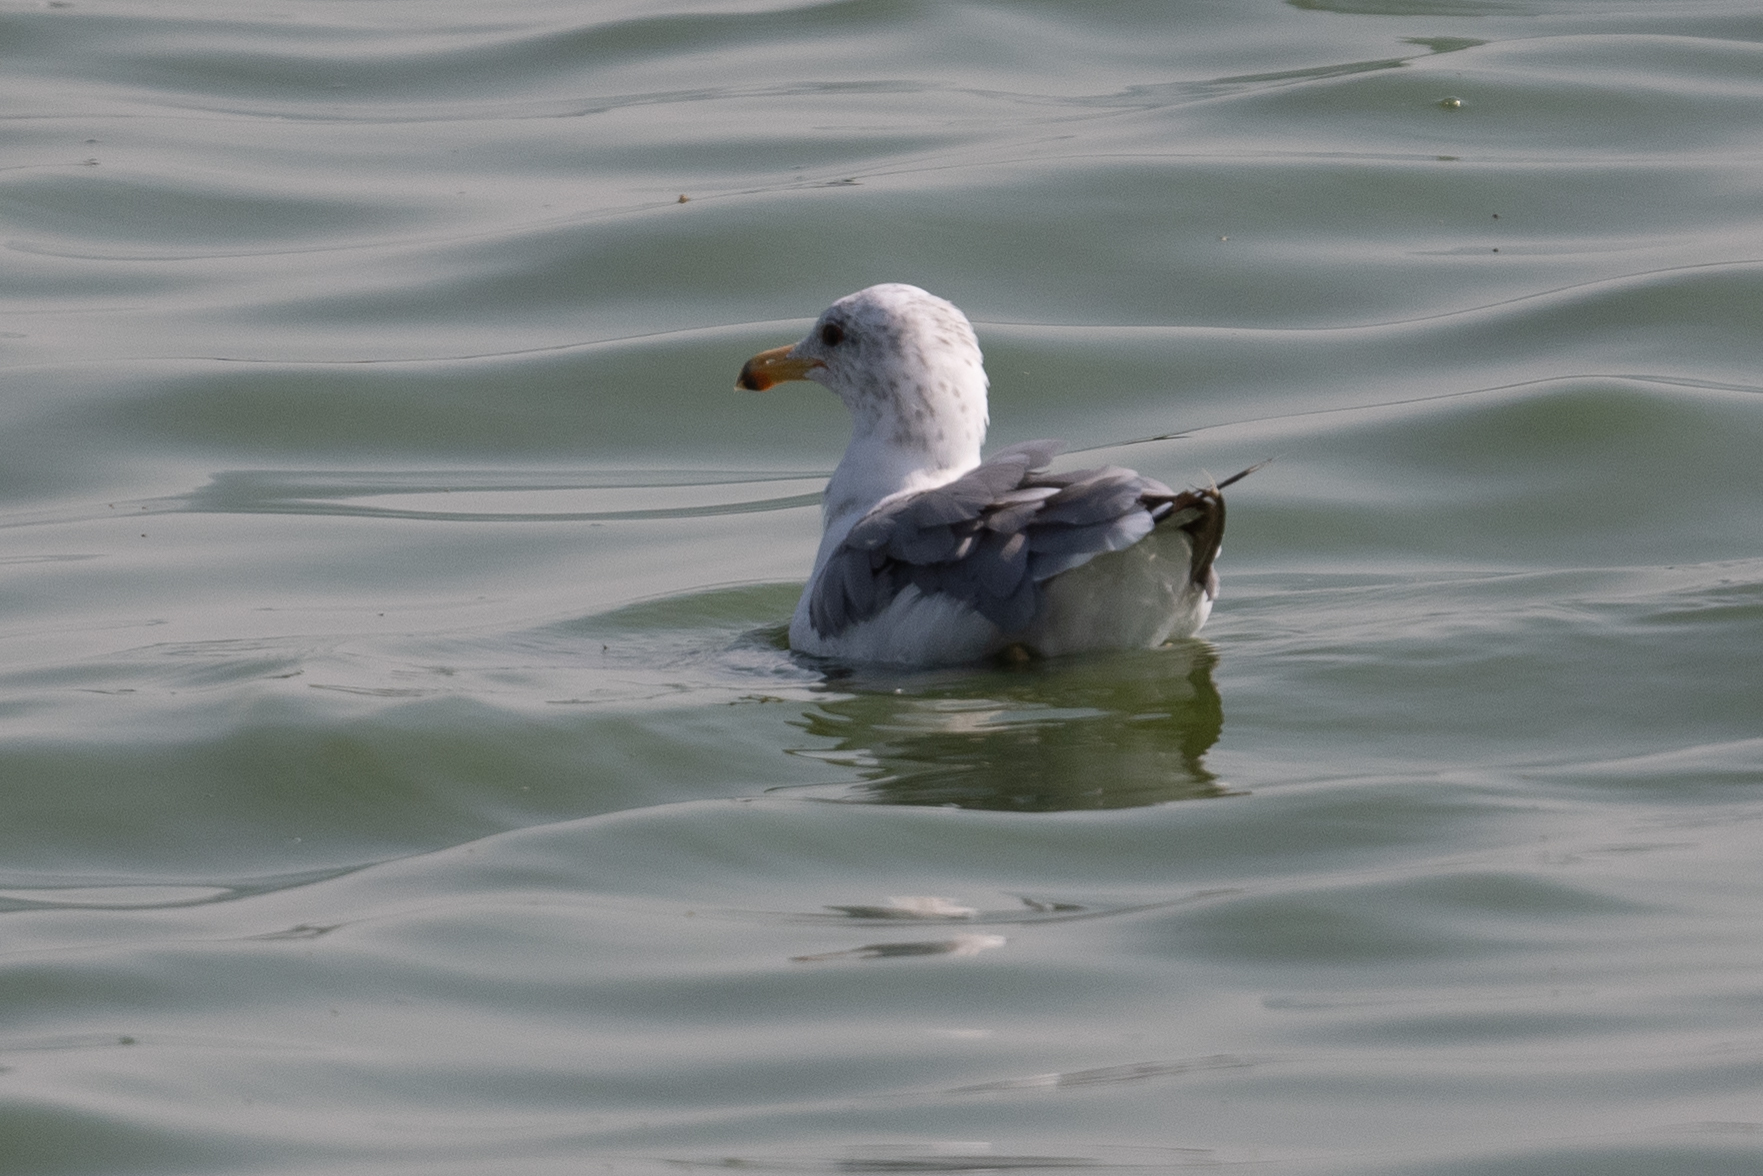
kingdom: Animalia
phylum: Chordata
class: Aves
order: Charadriiformes
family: Laridae
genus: Larus
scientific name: Larus californicus
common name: California gull
